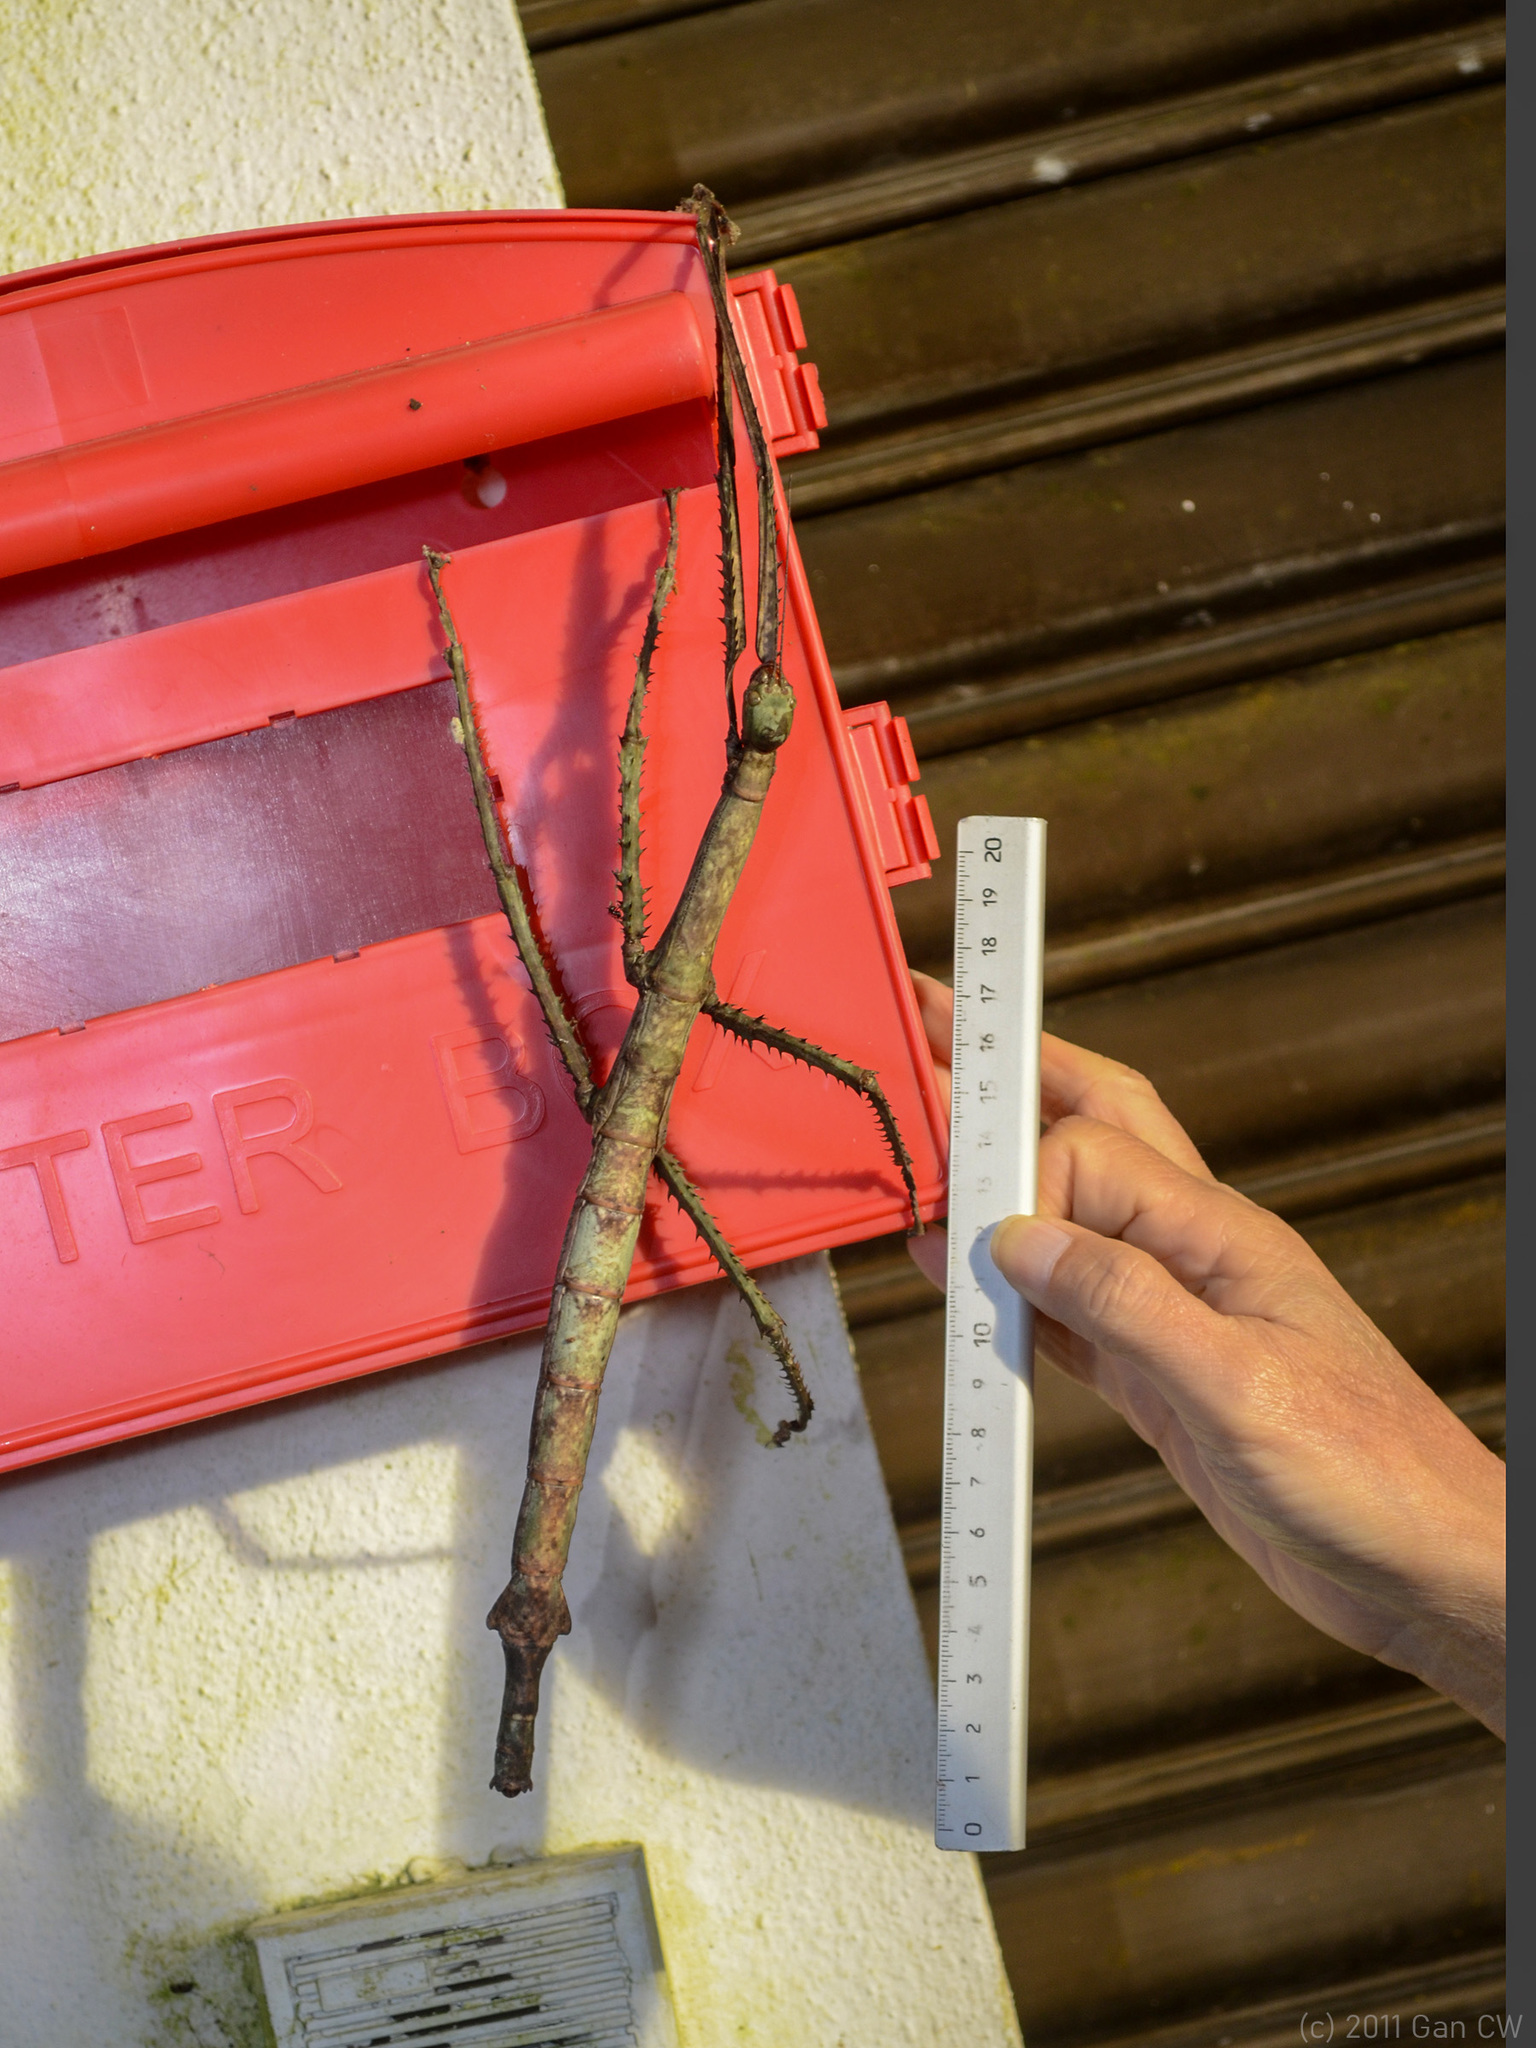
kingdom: Animalia
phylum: Arthropoda
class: Insecta
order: Phasmida
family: Phasmatidae
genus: Pharnacia
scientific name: Pharnacia sumatrana
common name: Sumatran stick insect
